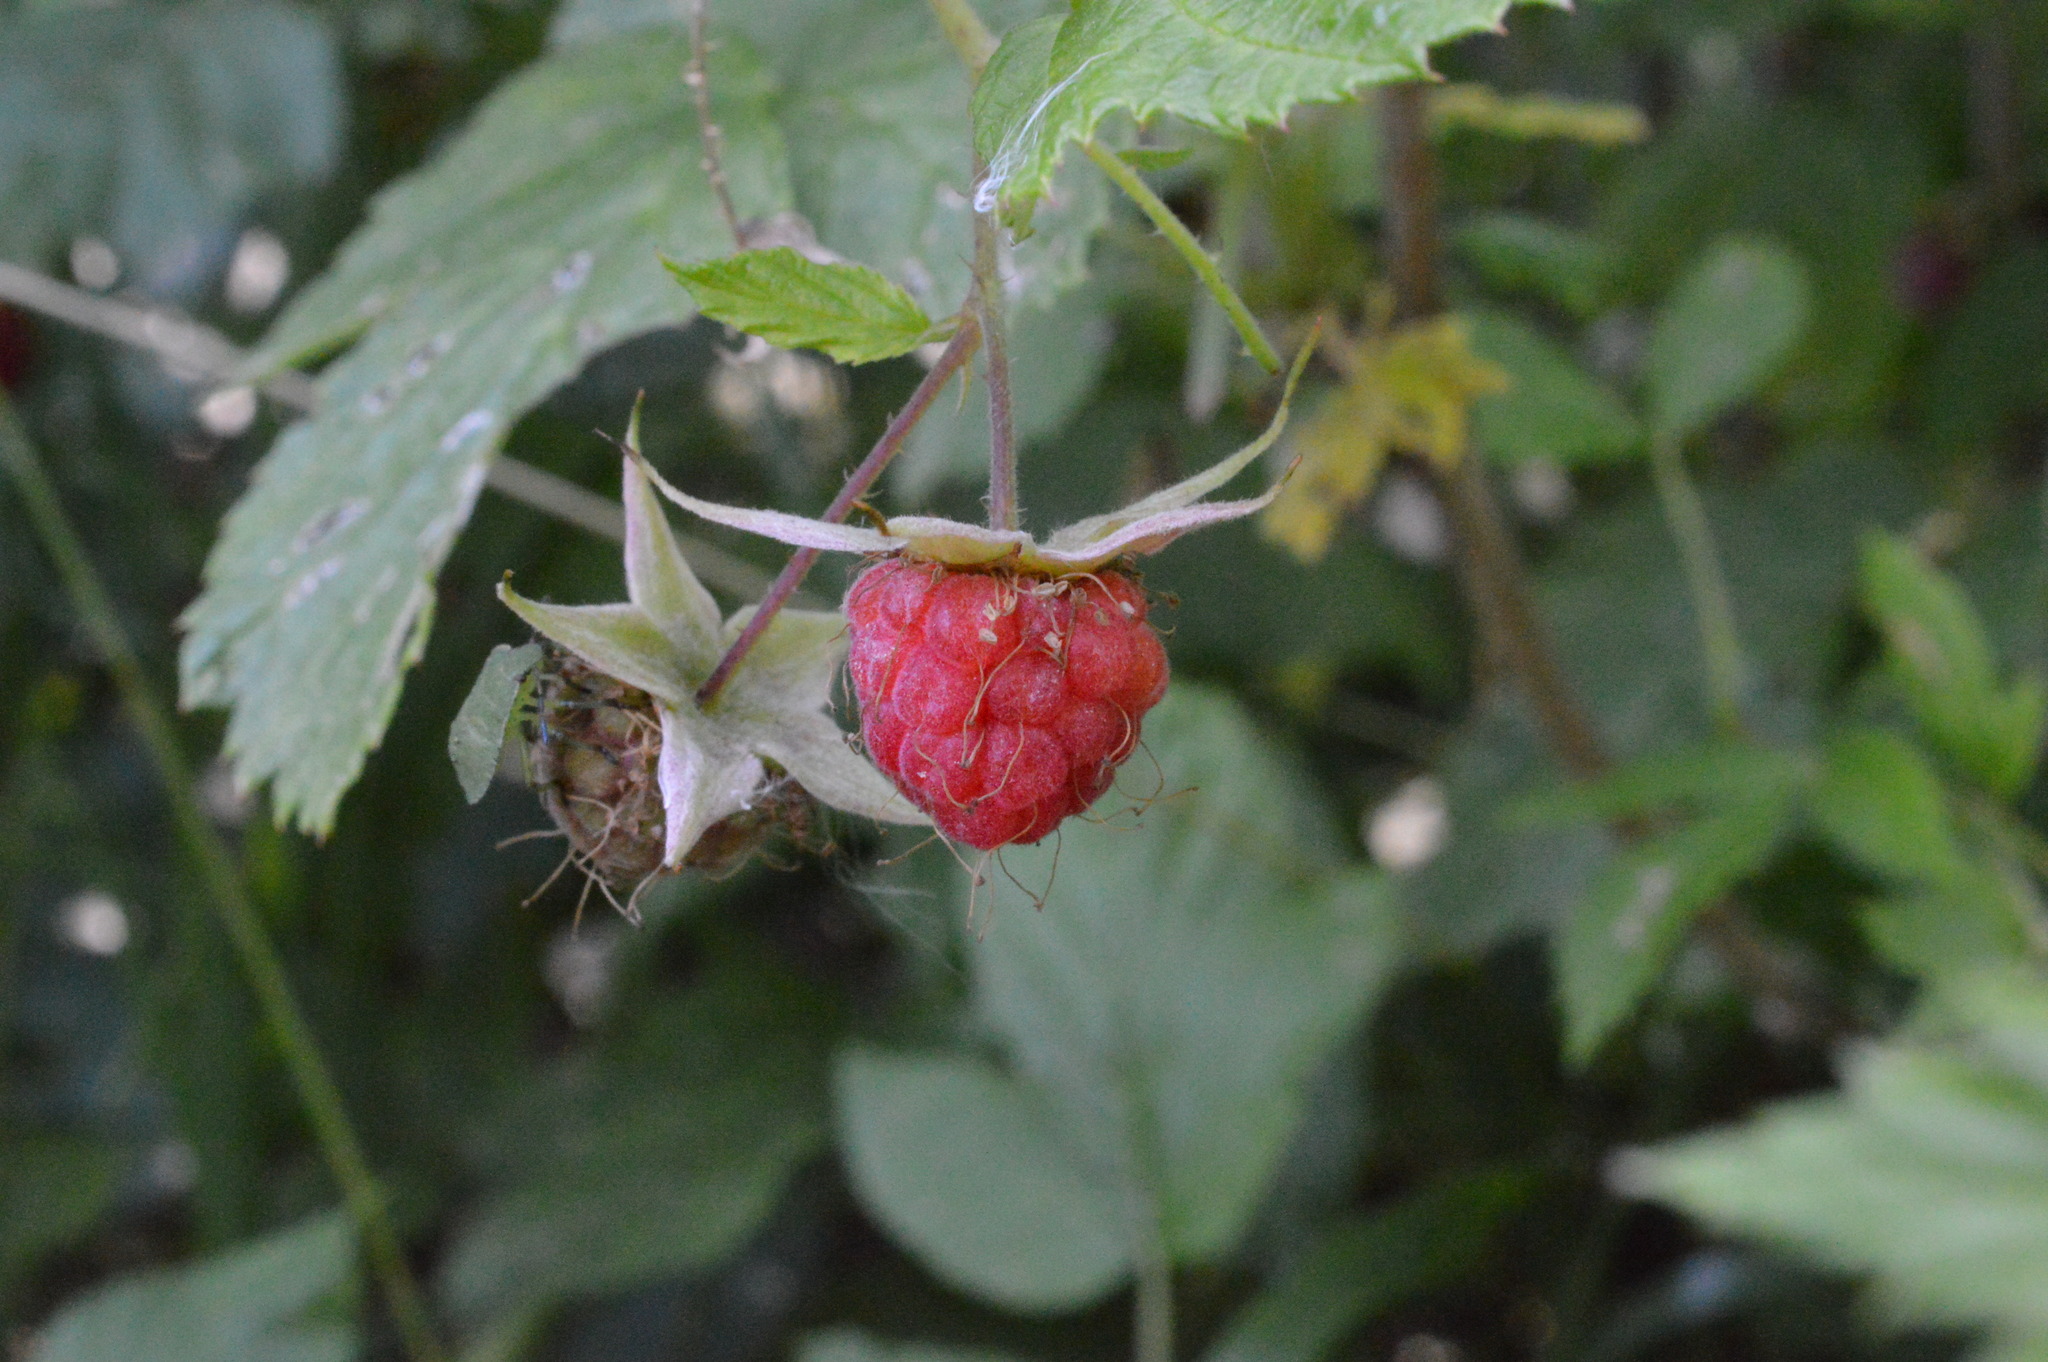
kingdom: Plantae
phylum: Tracheophyta
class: Magnoliopsida
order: Rosales
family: Rosaceae
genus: Rubus
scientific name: Rubus idaeus
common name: Raspberry
